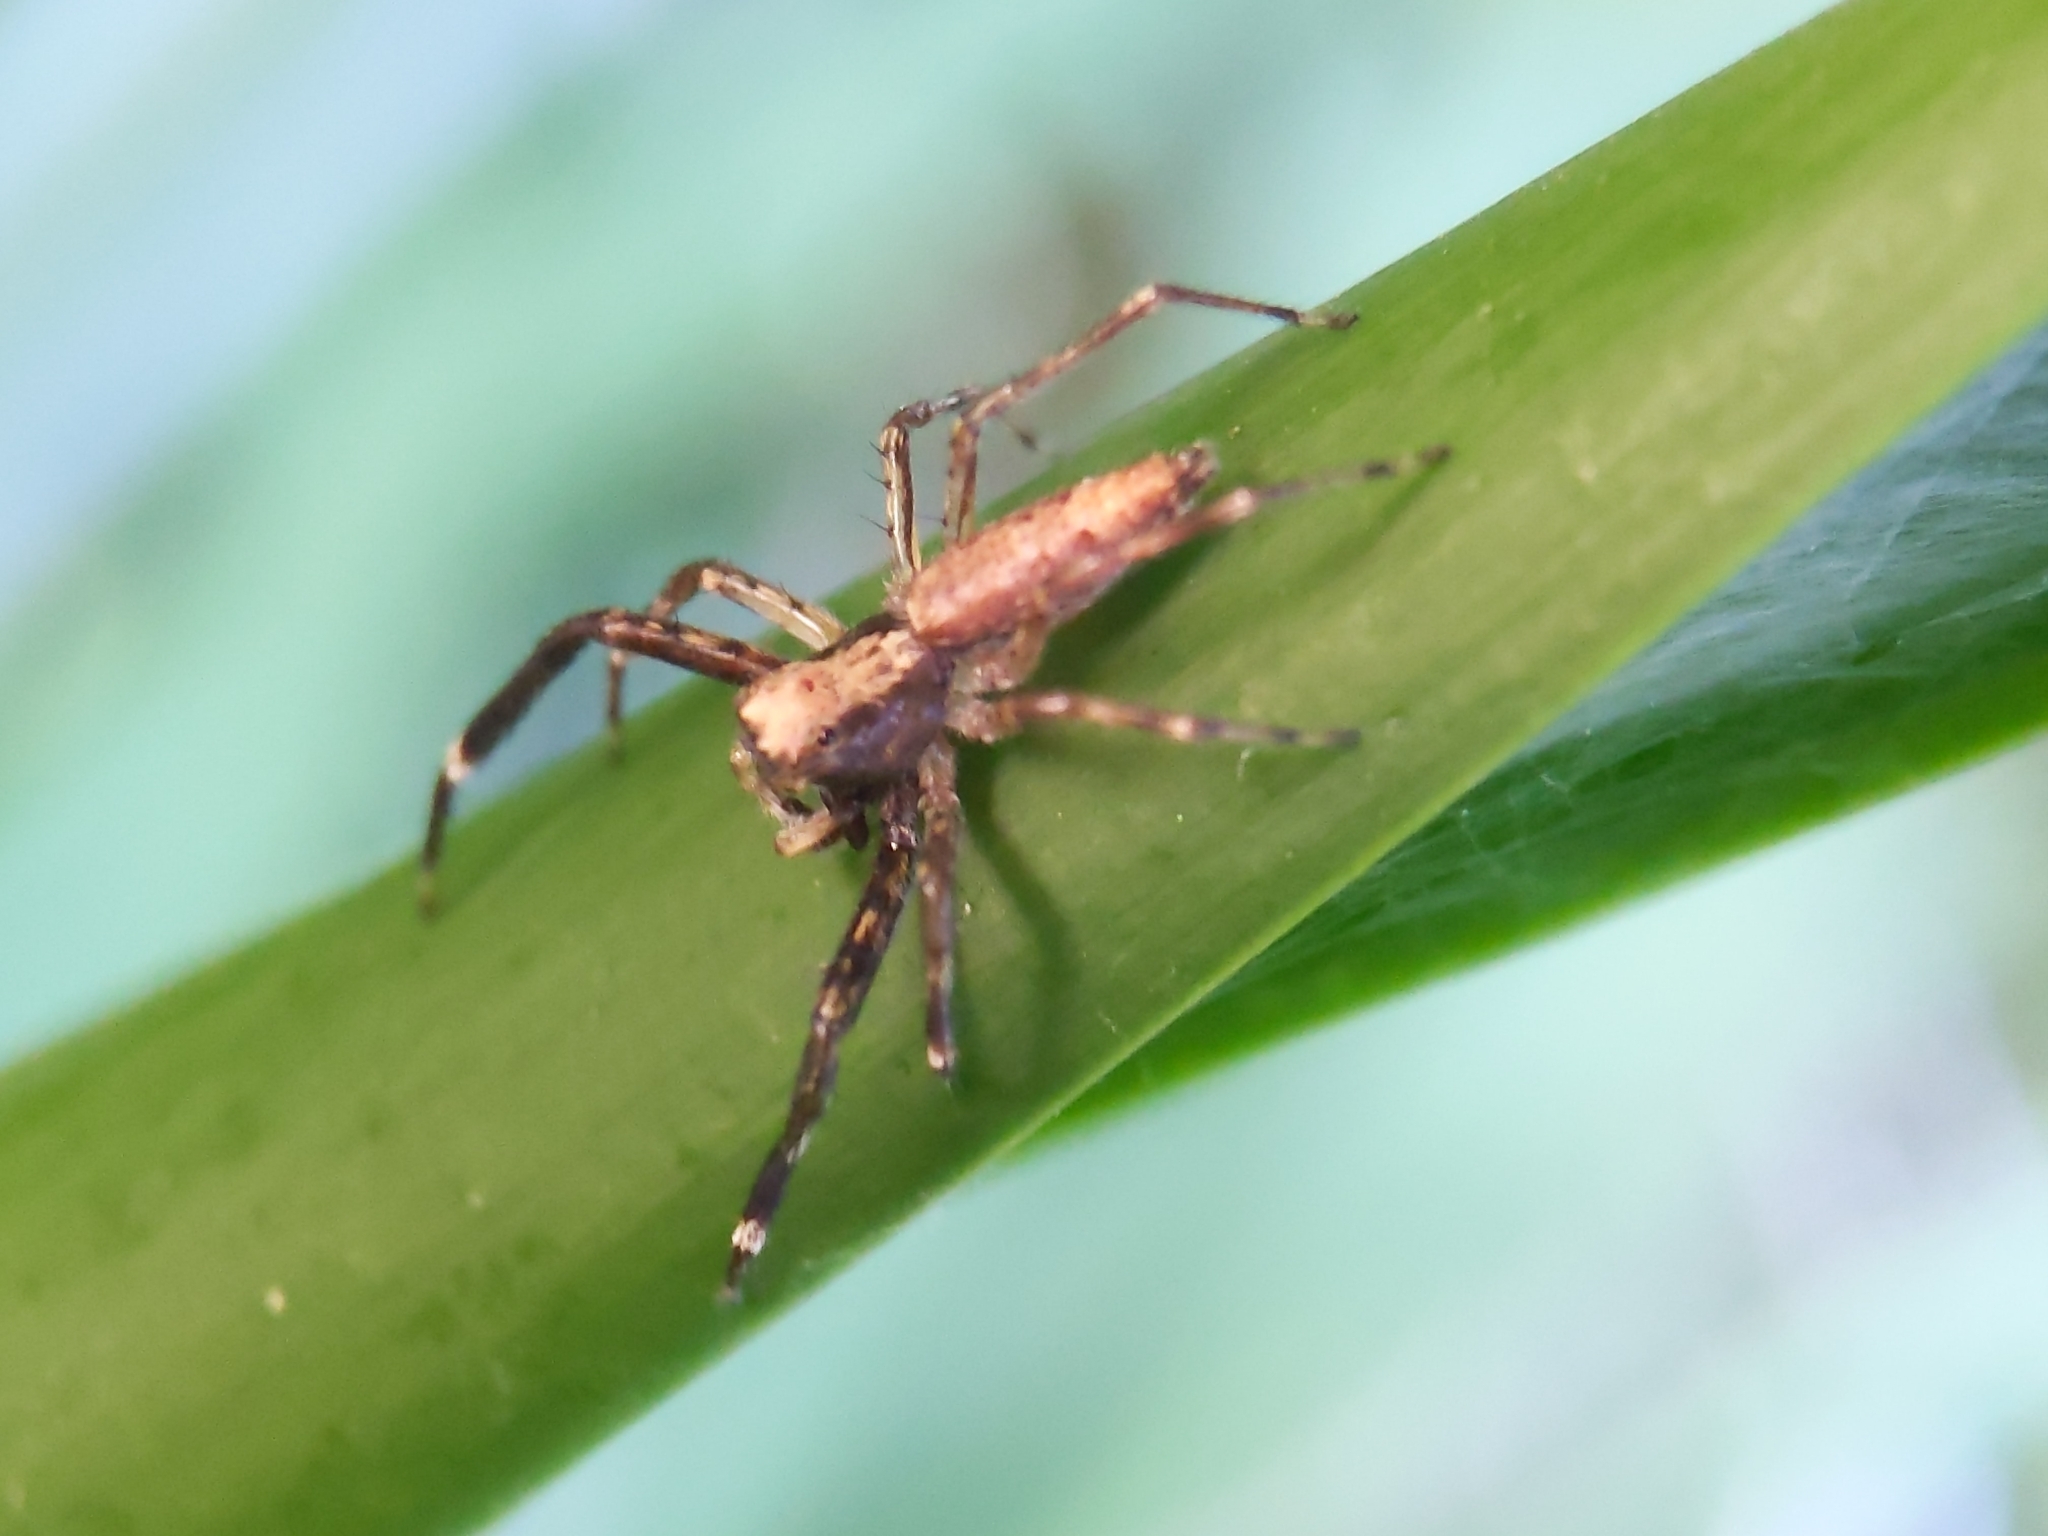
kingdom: Animalia
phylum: Arthropoda
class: Arachnida
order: Araneae
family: Salticidae
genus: Helpis
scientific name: Helpis minitabunda
